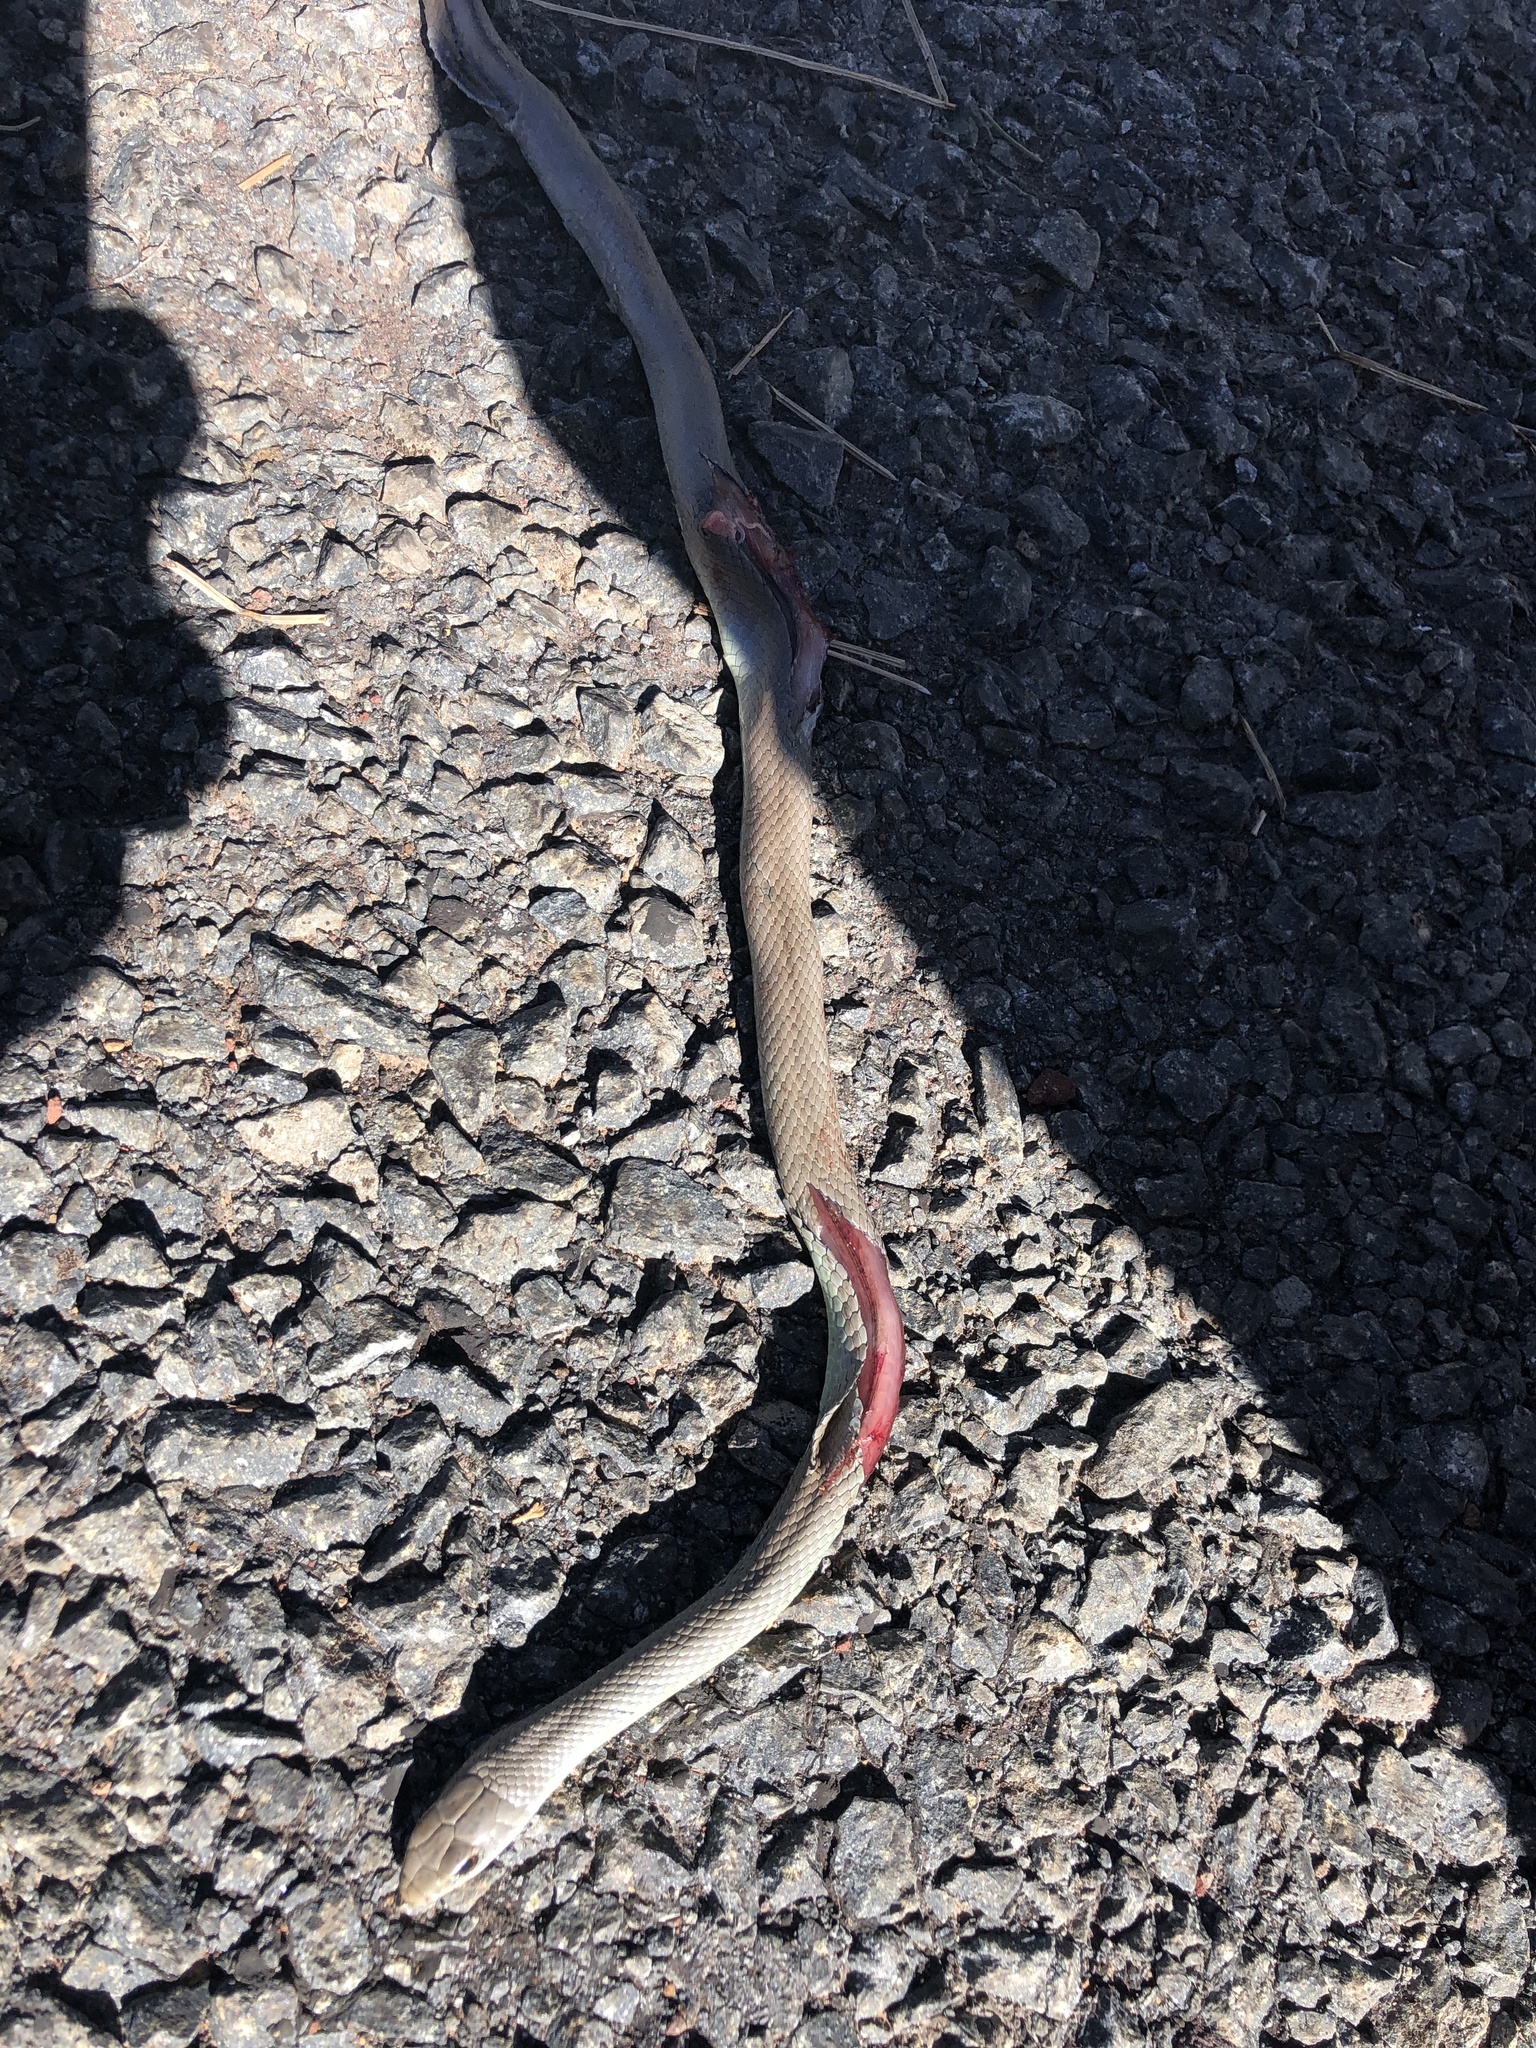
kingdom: Animalia
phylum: Chordata
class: Squamata
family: Colubridae
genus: Coluber
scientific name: Coluber constrictor
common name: Eastern racer
